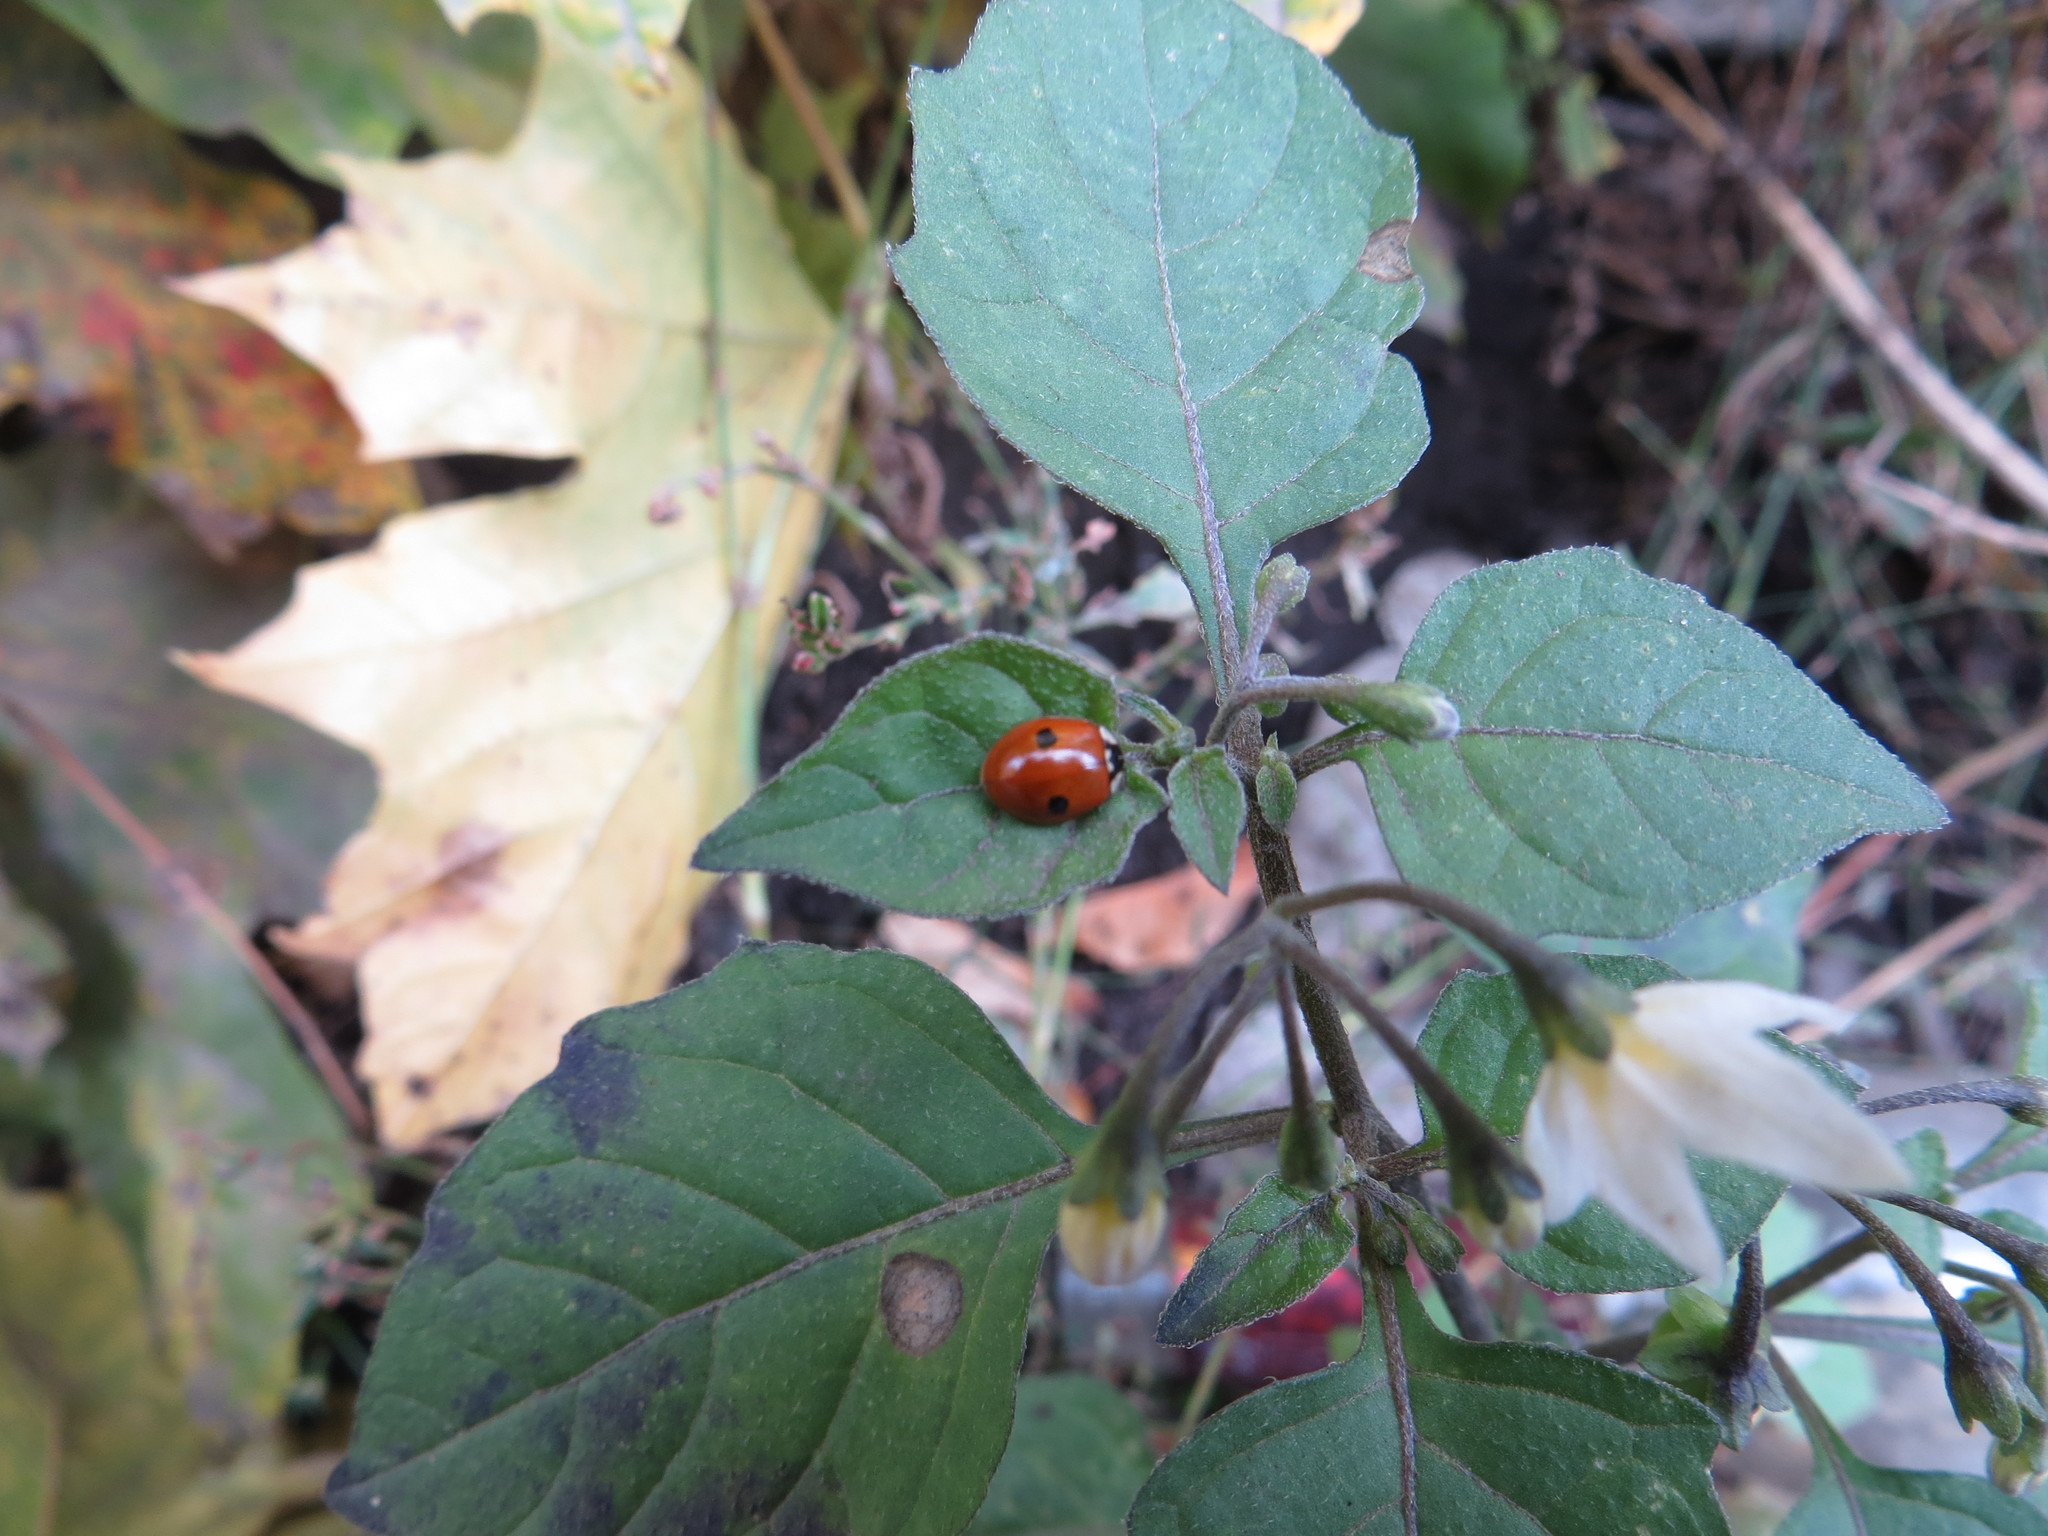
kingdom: Animalia
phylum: Arthropoda
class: Insecta
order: Coleoptera
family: Coccinellidae
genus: Adalia
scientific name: Adalia bipunctata
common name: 2-spot ladybird
